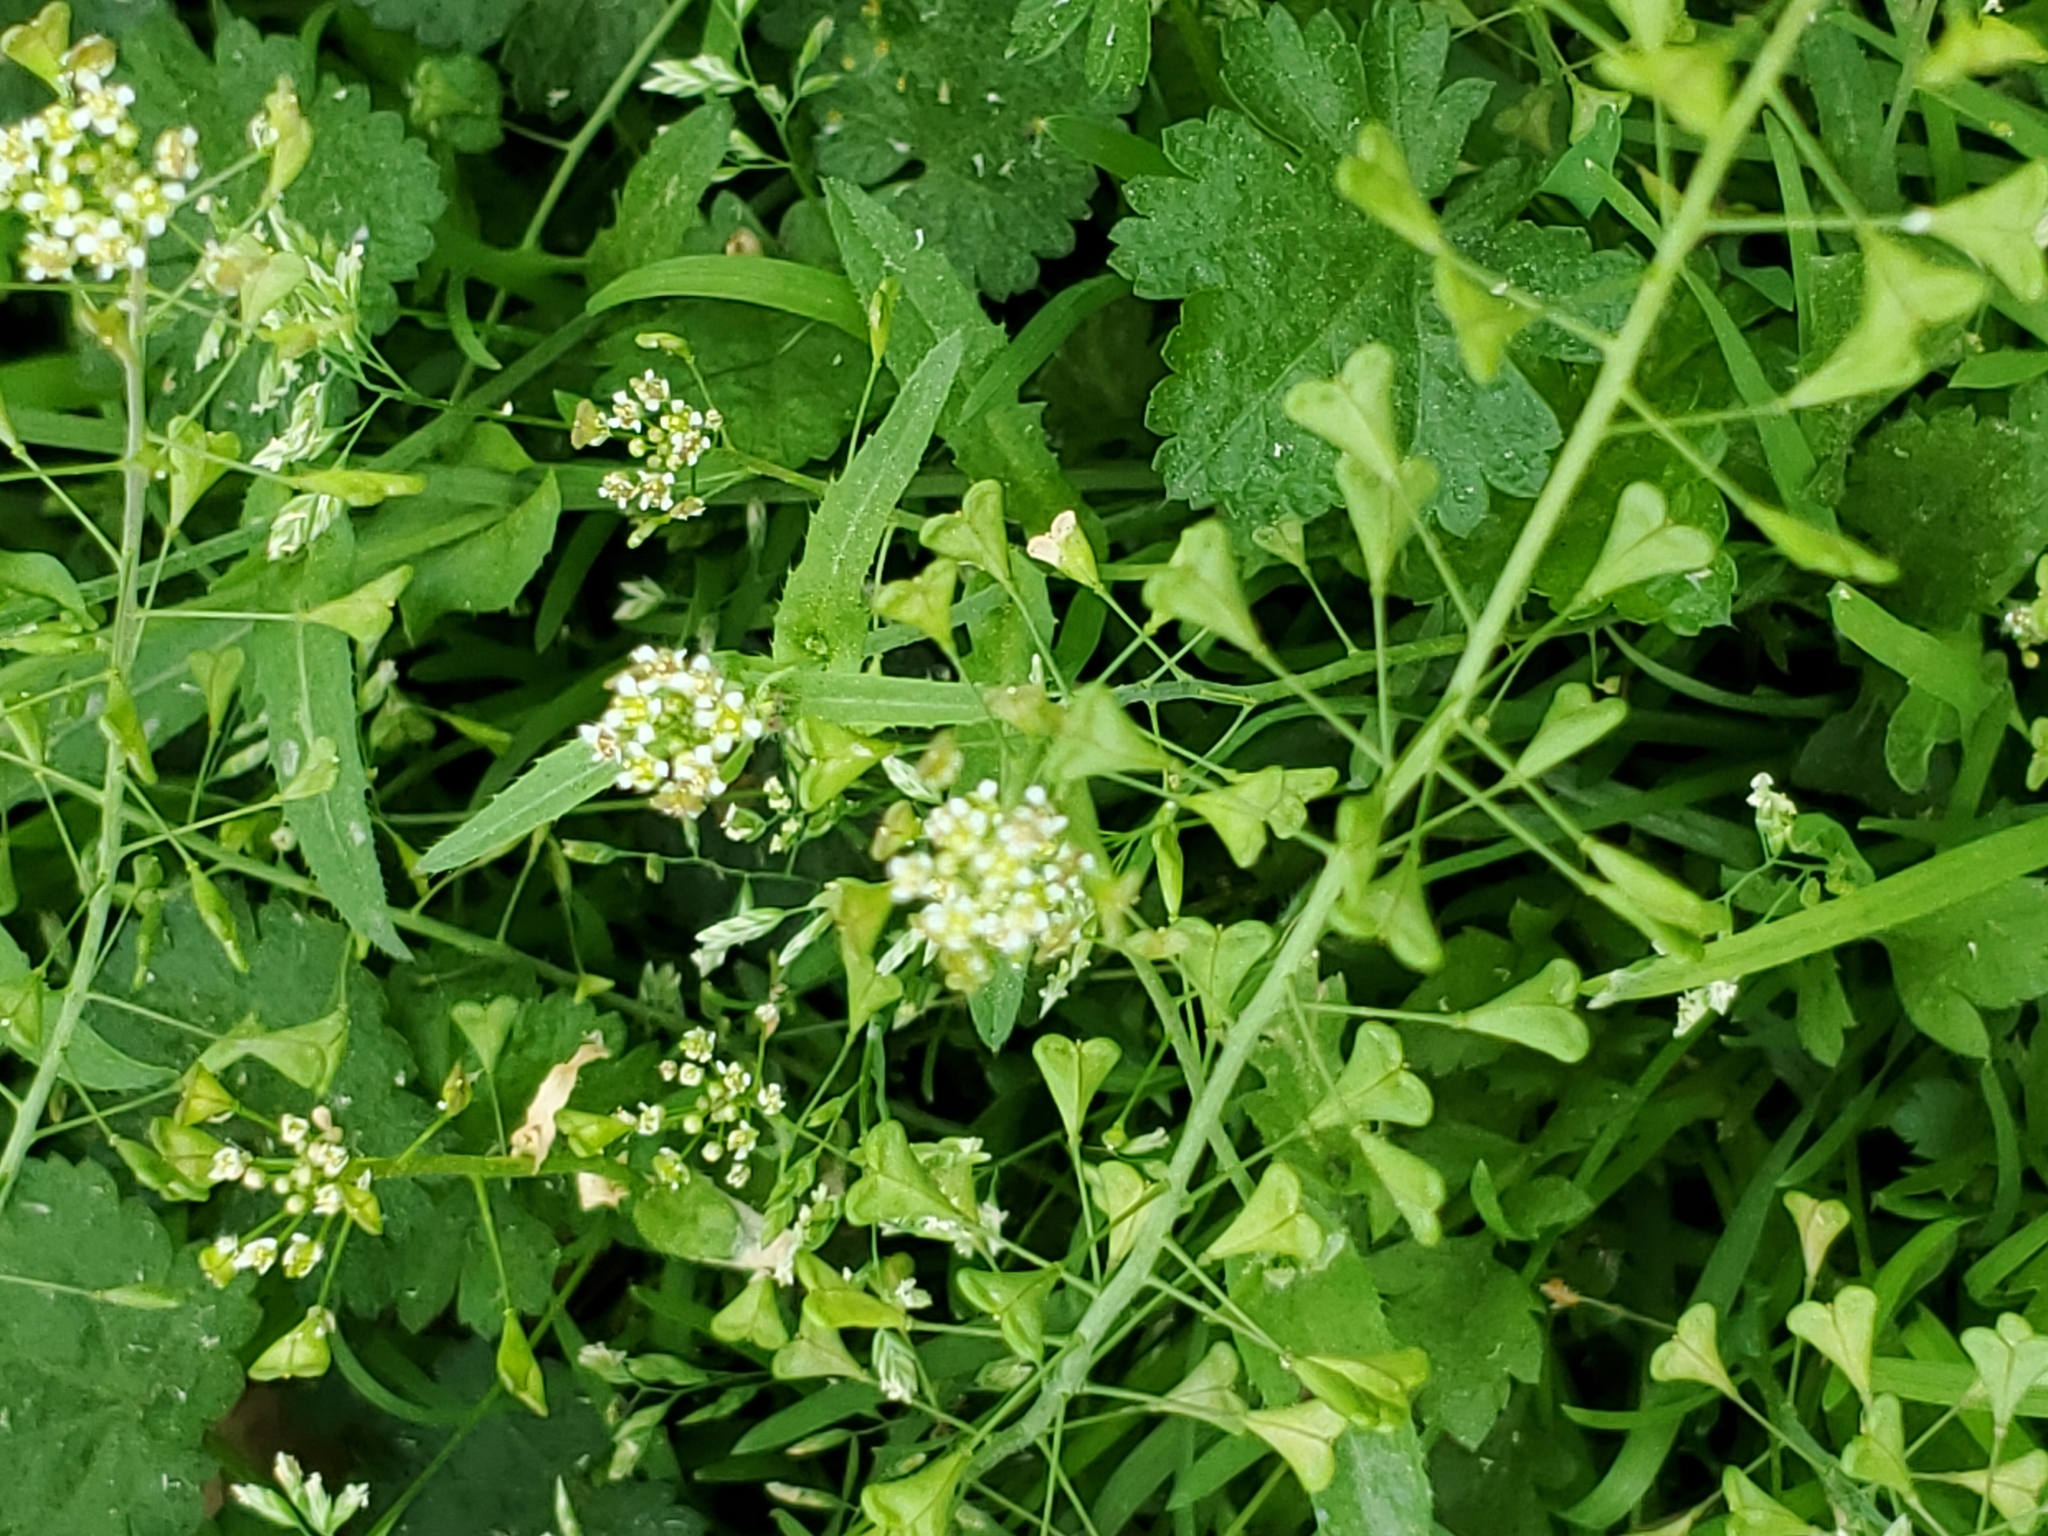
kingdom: Plantae
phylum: Tracheophyta
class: Magnoliopsida
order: Brassicales
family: Brassicaceae
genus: Capsella
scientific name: Capsella bursa-pastoris
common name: Shepherd's purse
